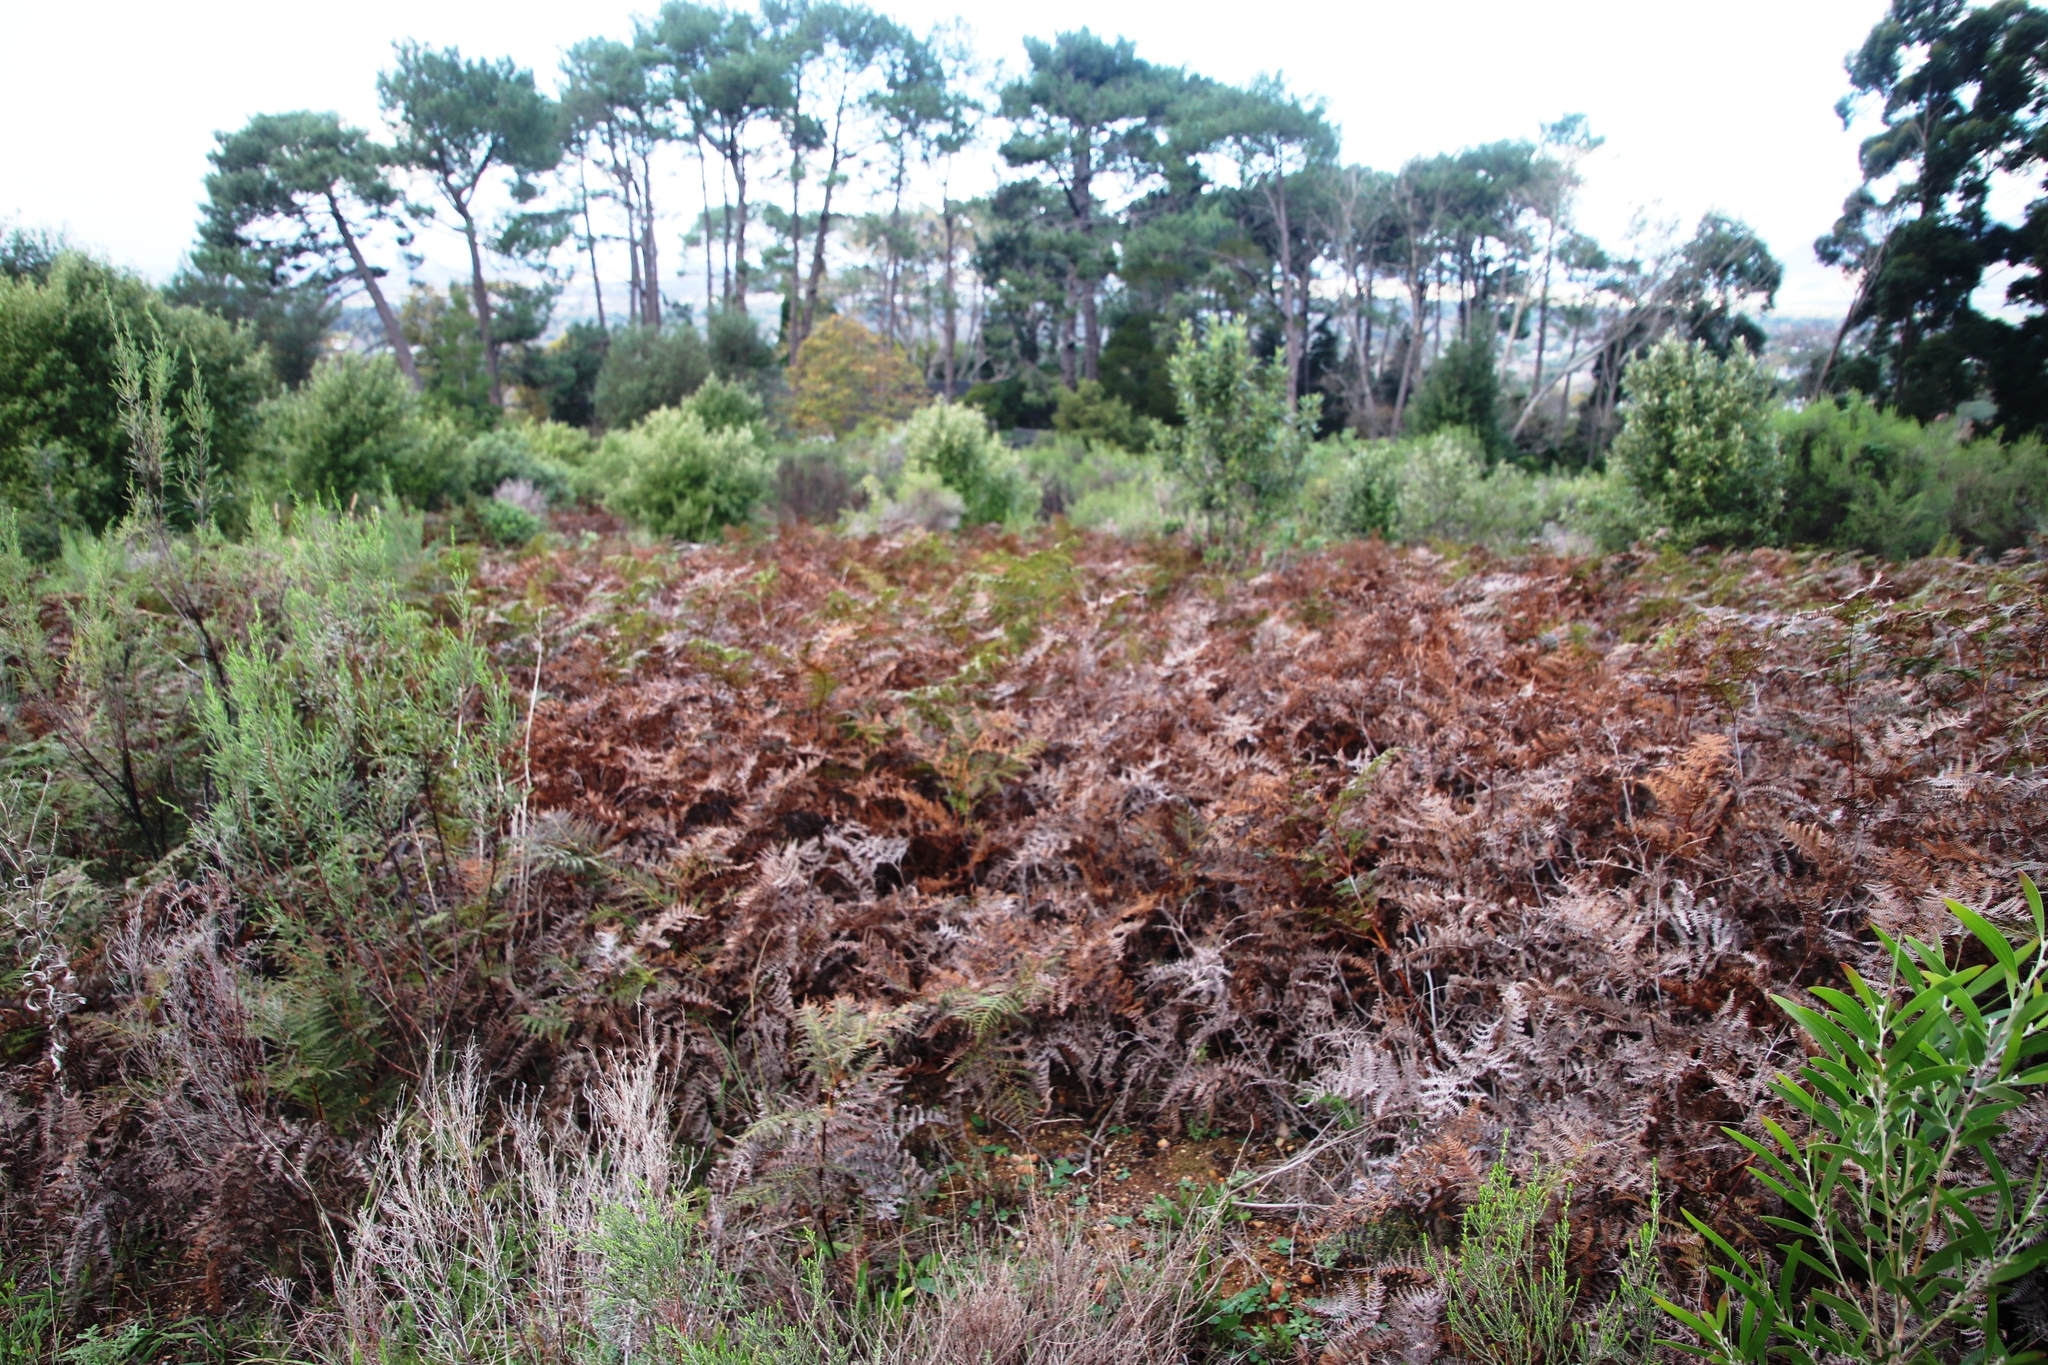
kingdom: Plantae
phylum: Tracheophyta
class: Polypodiopsida
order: Polypodiales
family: Dennstaedtiaceae
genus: Pteridium
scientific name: Pteridium aquilinum
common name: Bracken
